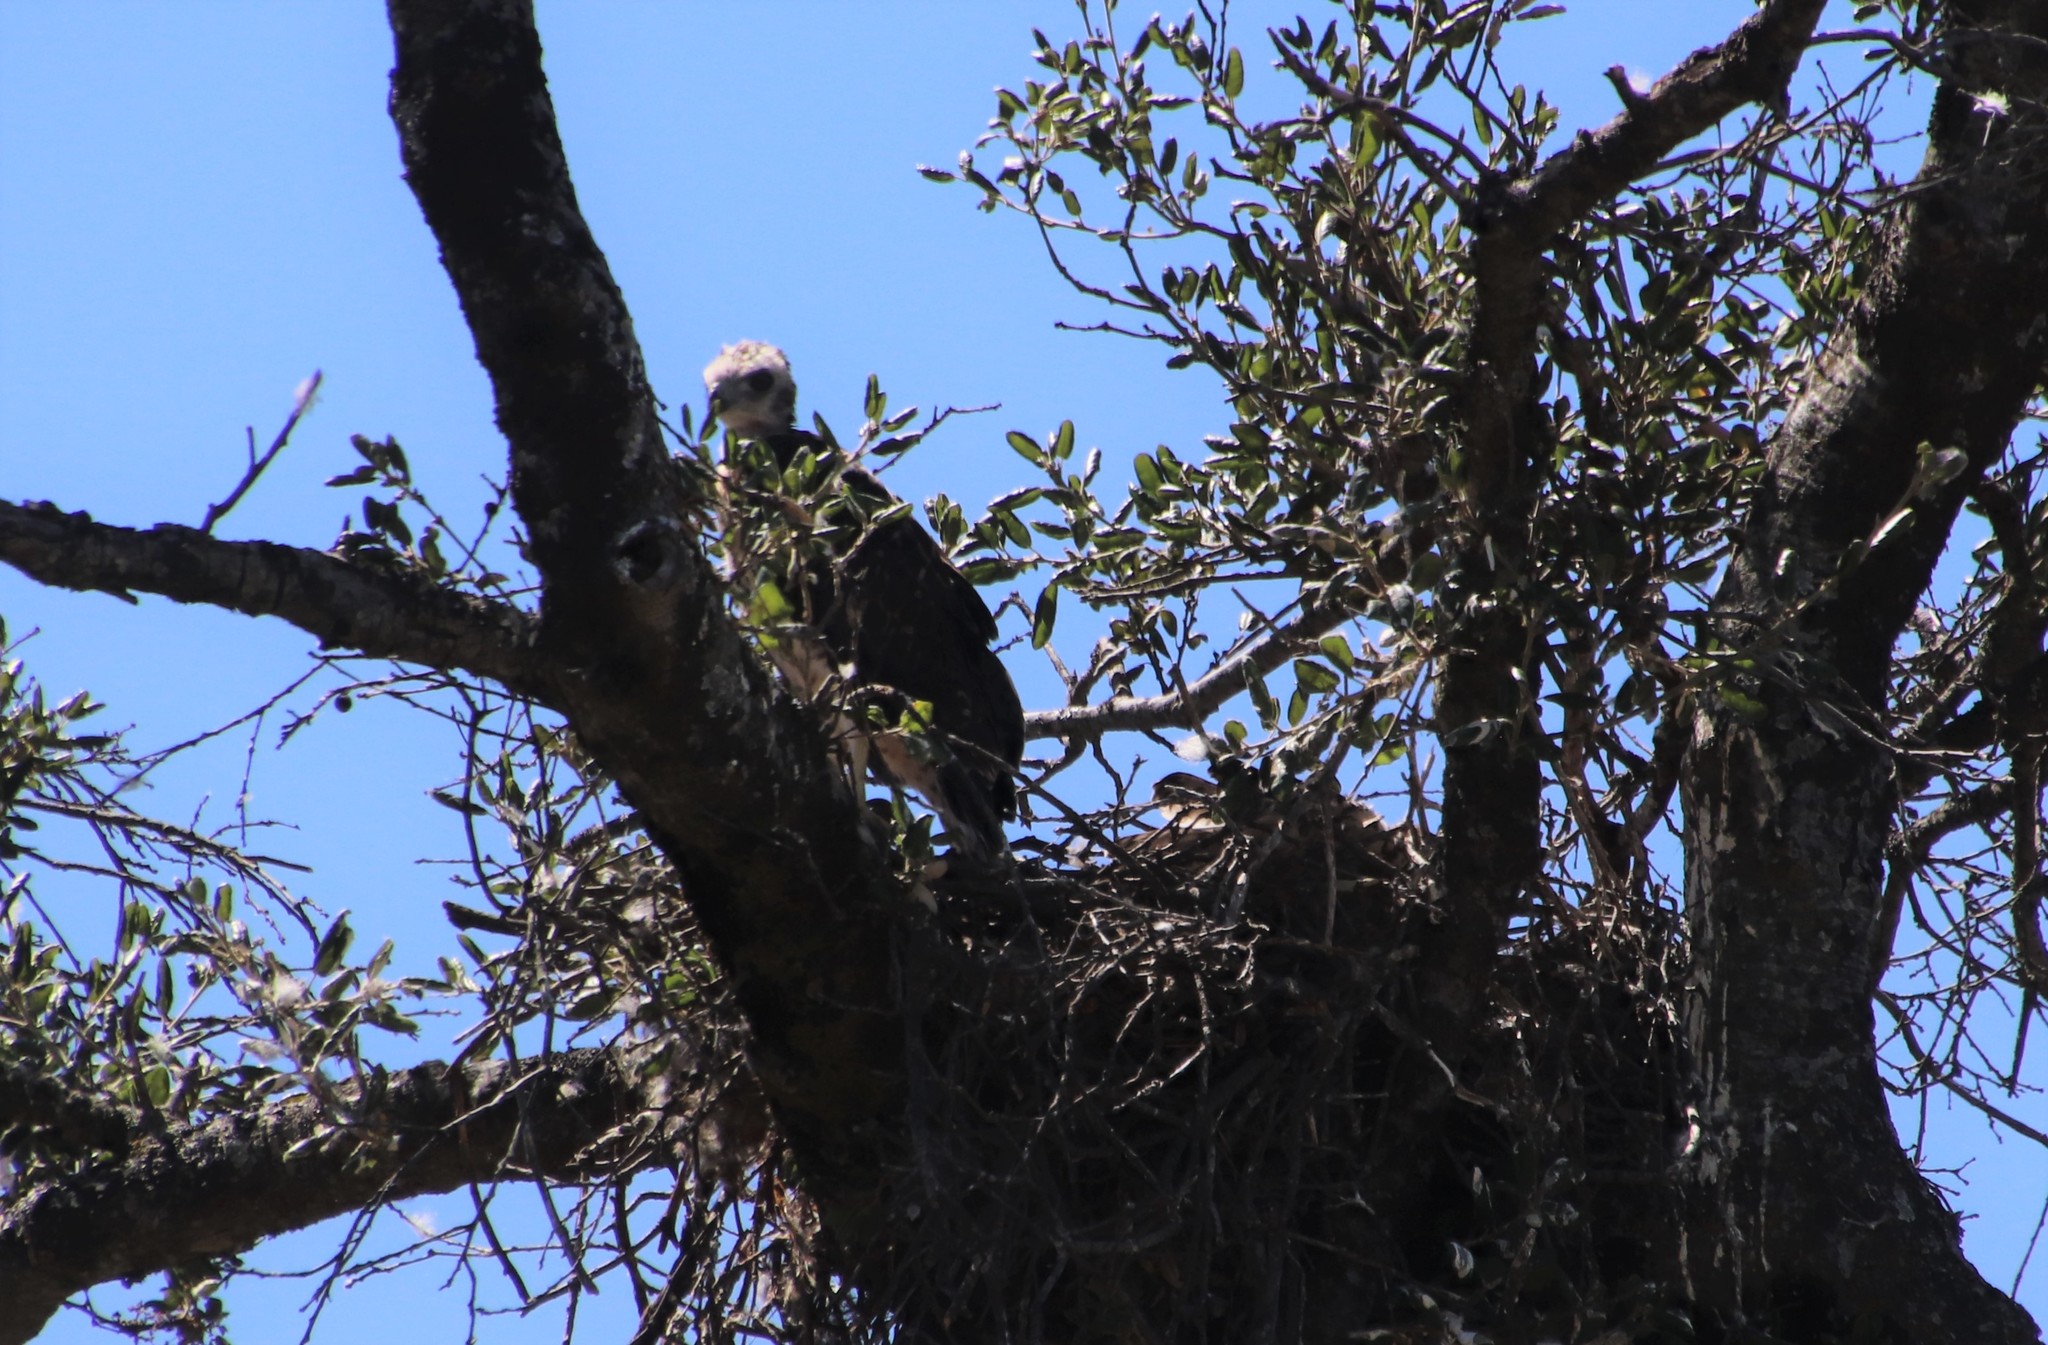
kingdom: Animalia
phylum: Chordata
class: Aves
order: Accipitriformes
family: Accipitridae
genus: Buteo
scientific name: Buteo jamaicensis
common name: Red-tailed hawk
